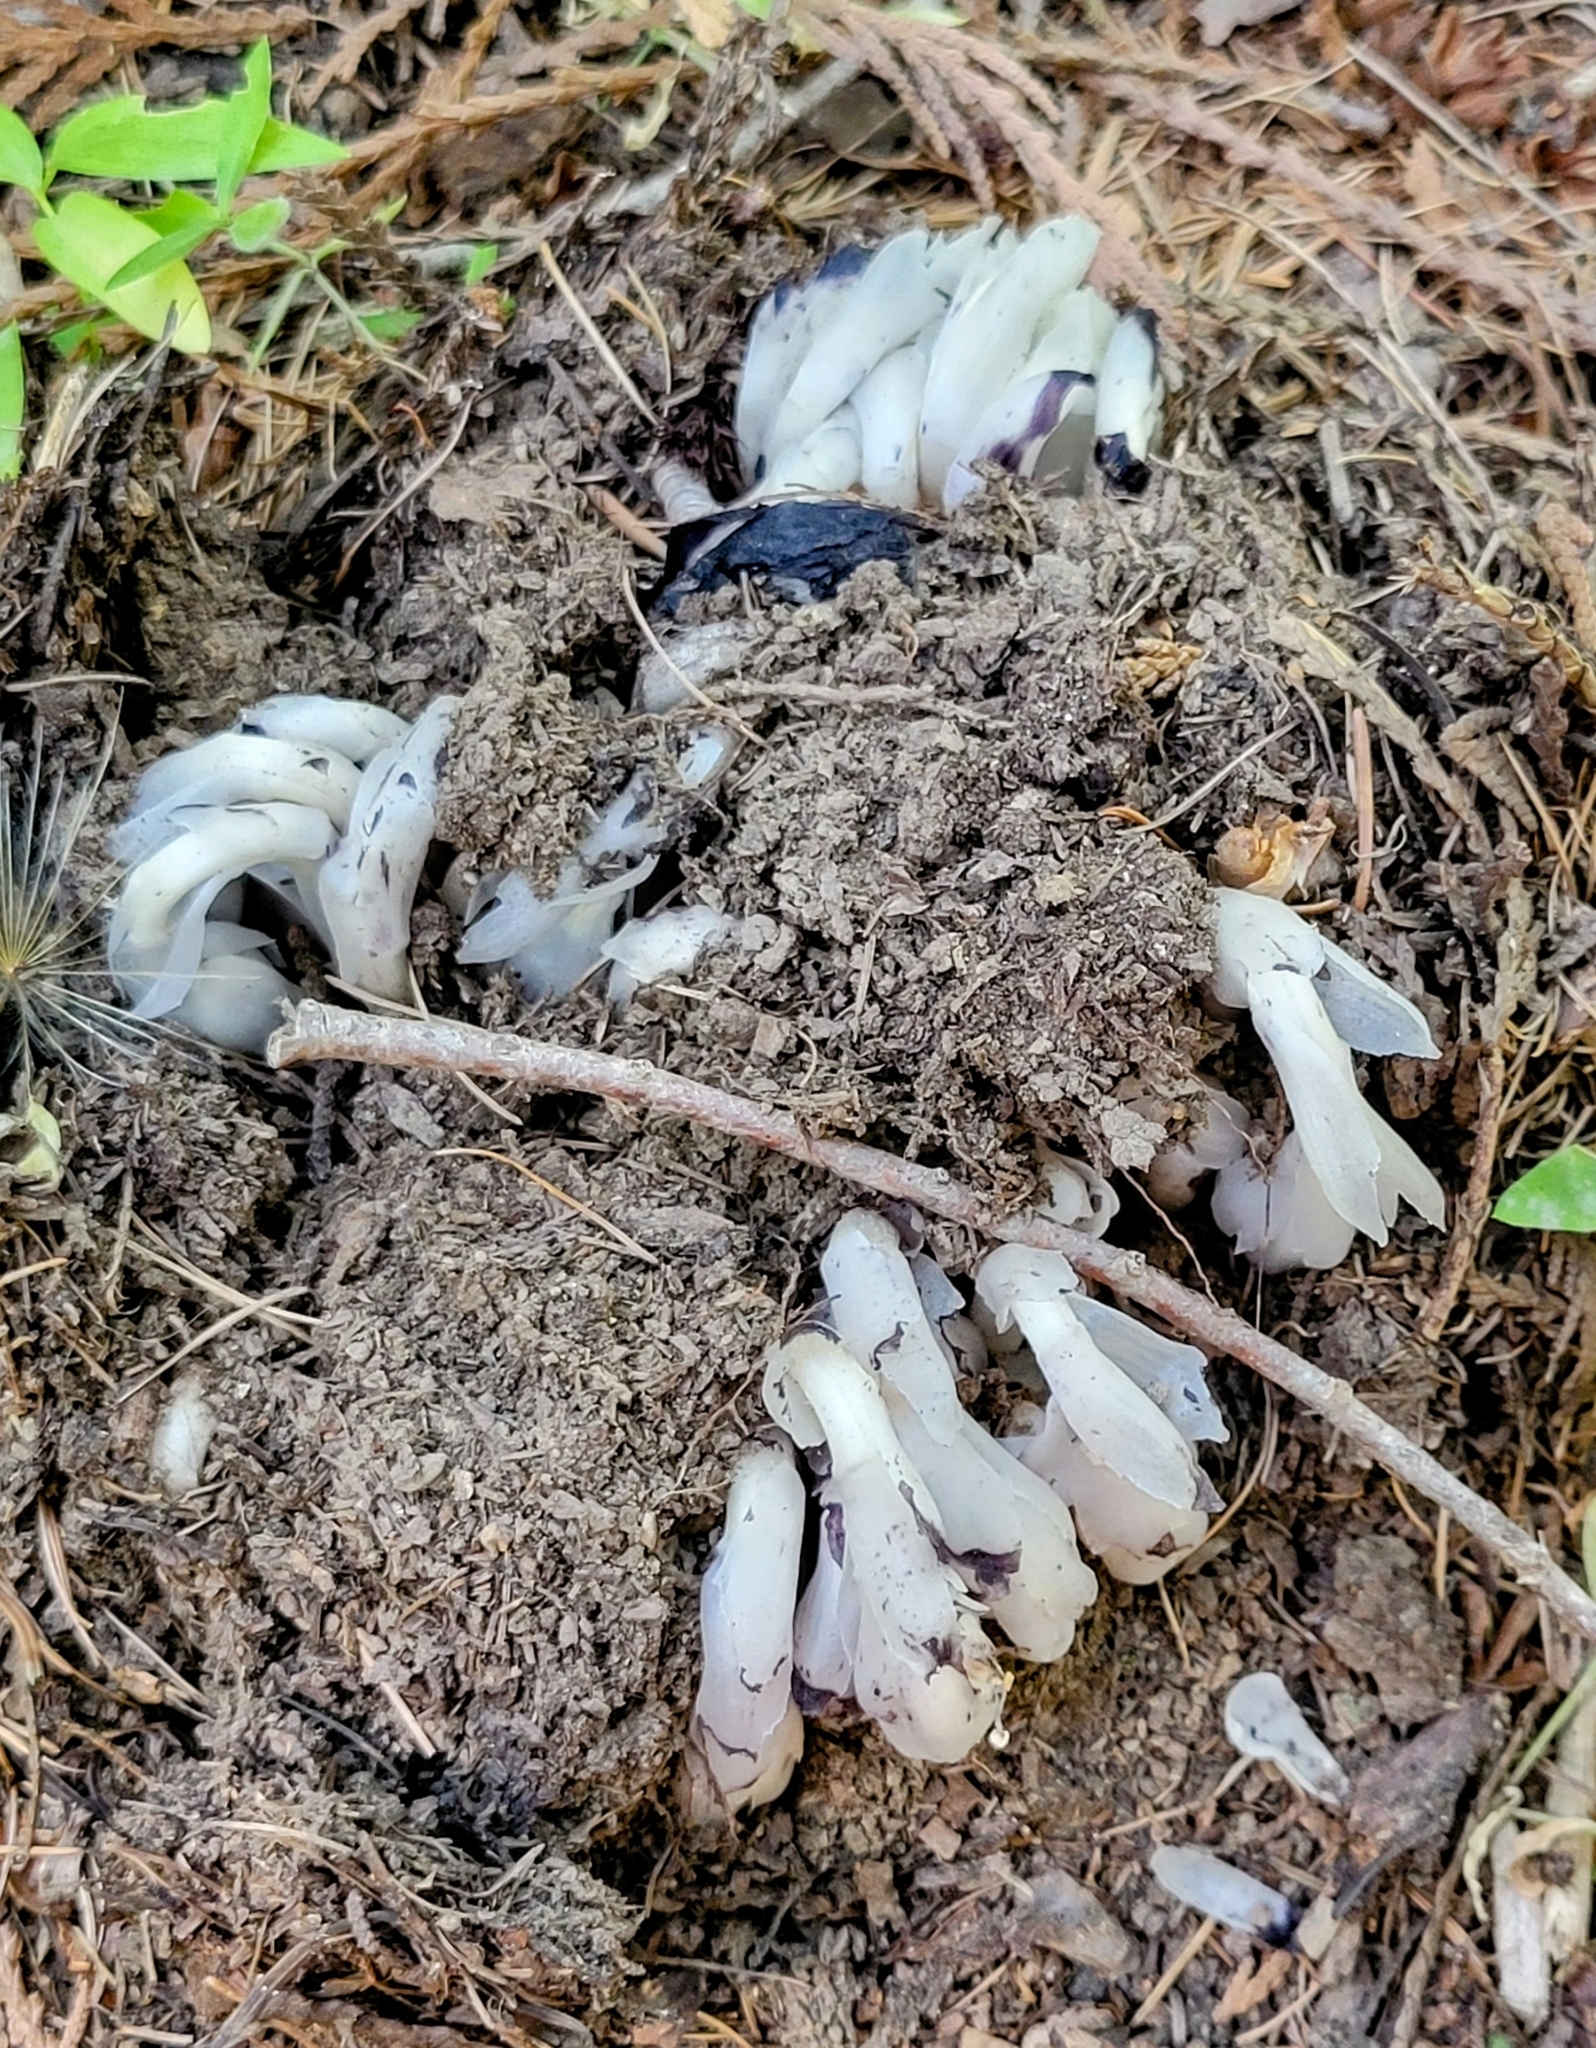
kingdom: Plantae
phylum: Tracheophyta
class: Magnoliopsida
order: Ericales
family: Ericaceae
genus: Monotropa
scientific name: Monotropa uniflora
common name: Convulsion root
